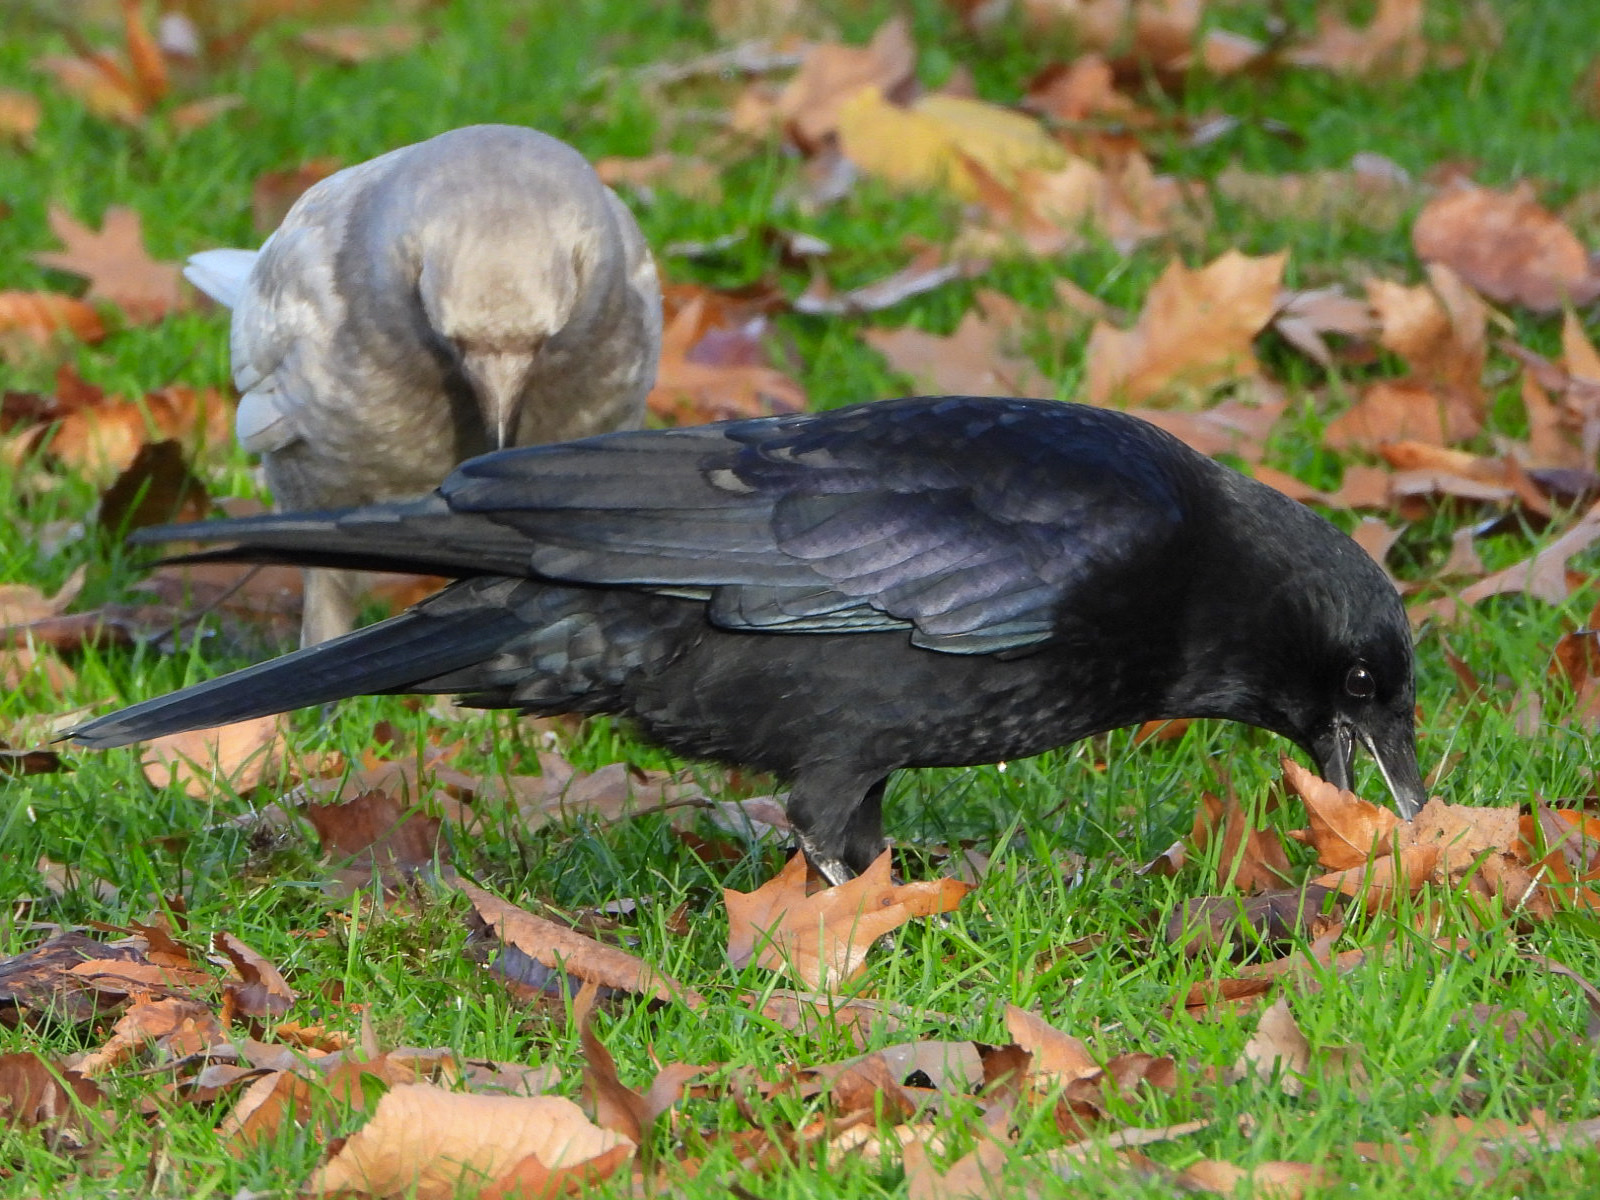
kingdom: Animalia
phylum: Chordata
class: Aves
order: Passeriformes
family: Corvidae
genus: Corvus
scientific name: Corvus brachyrhynchos
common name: American crow
